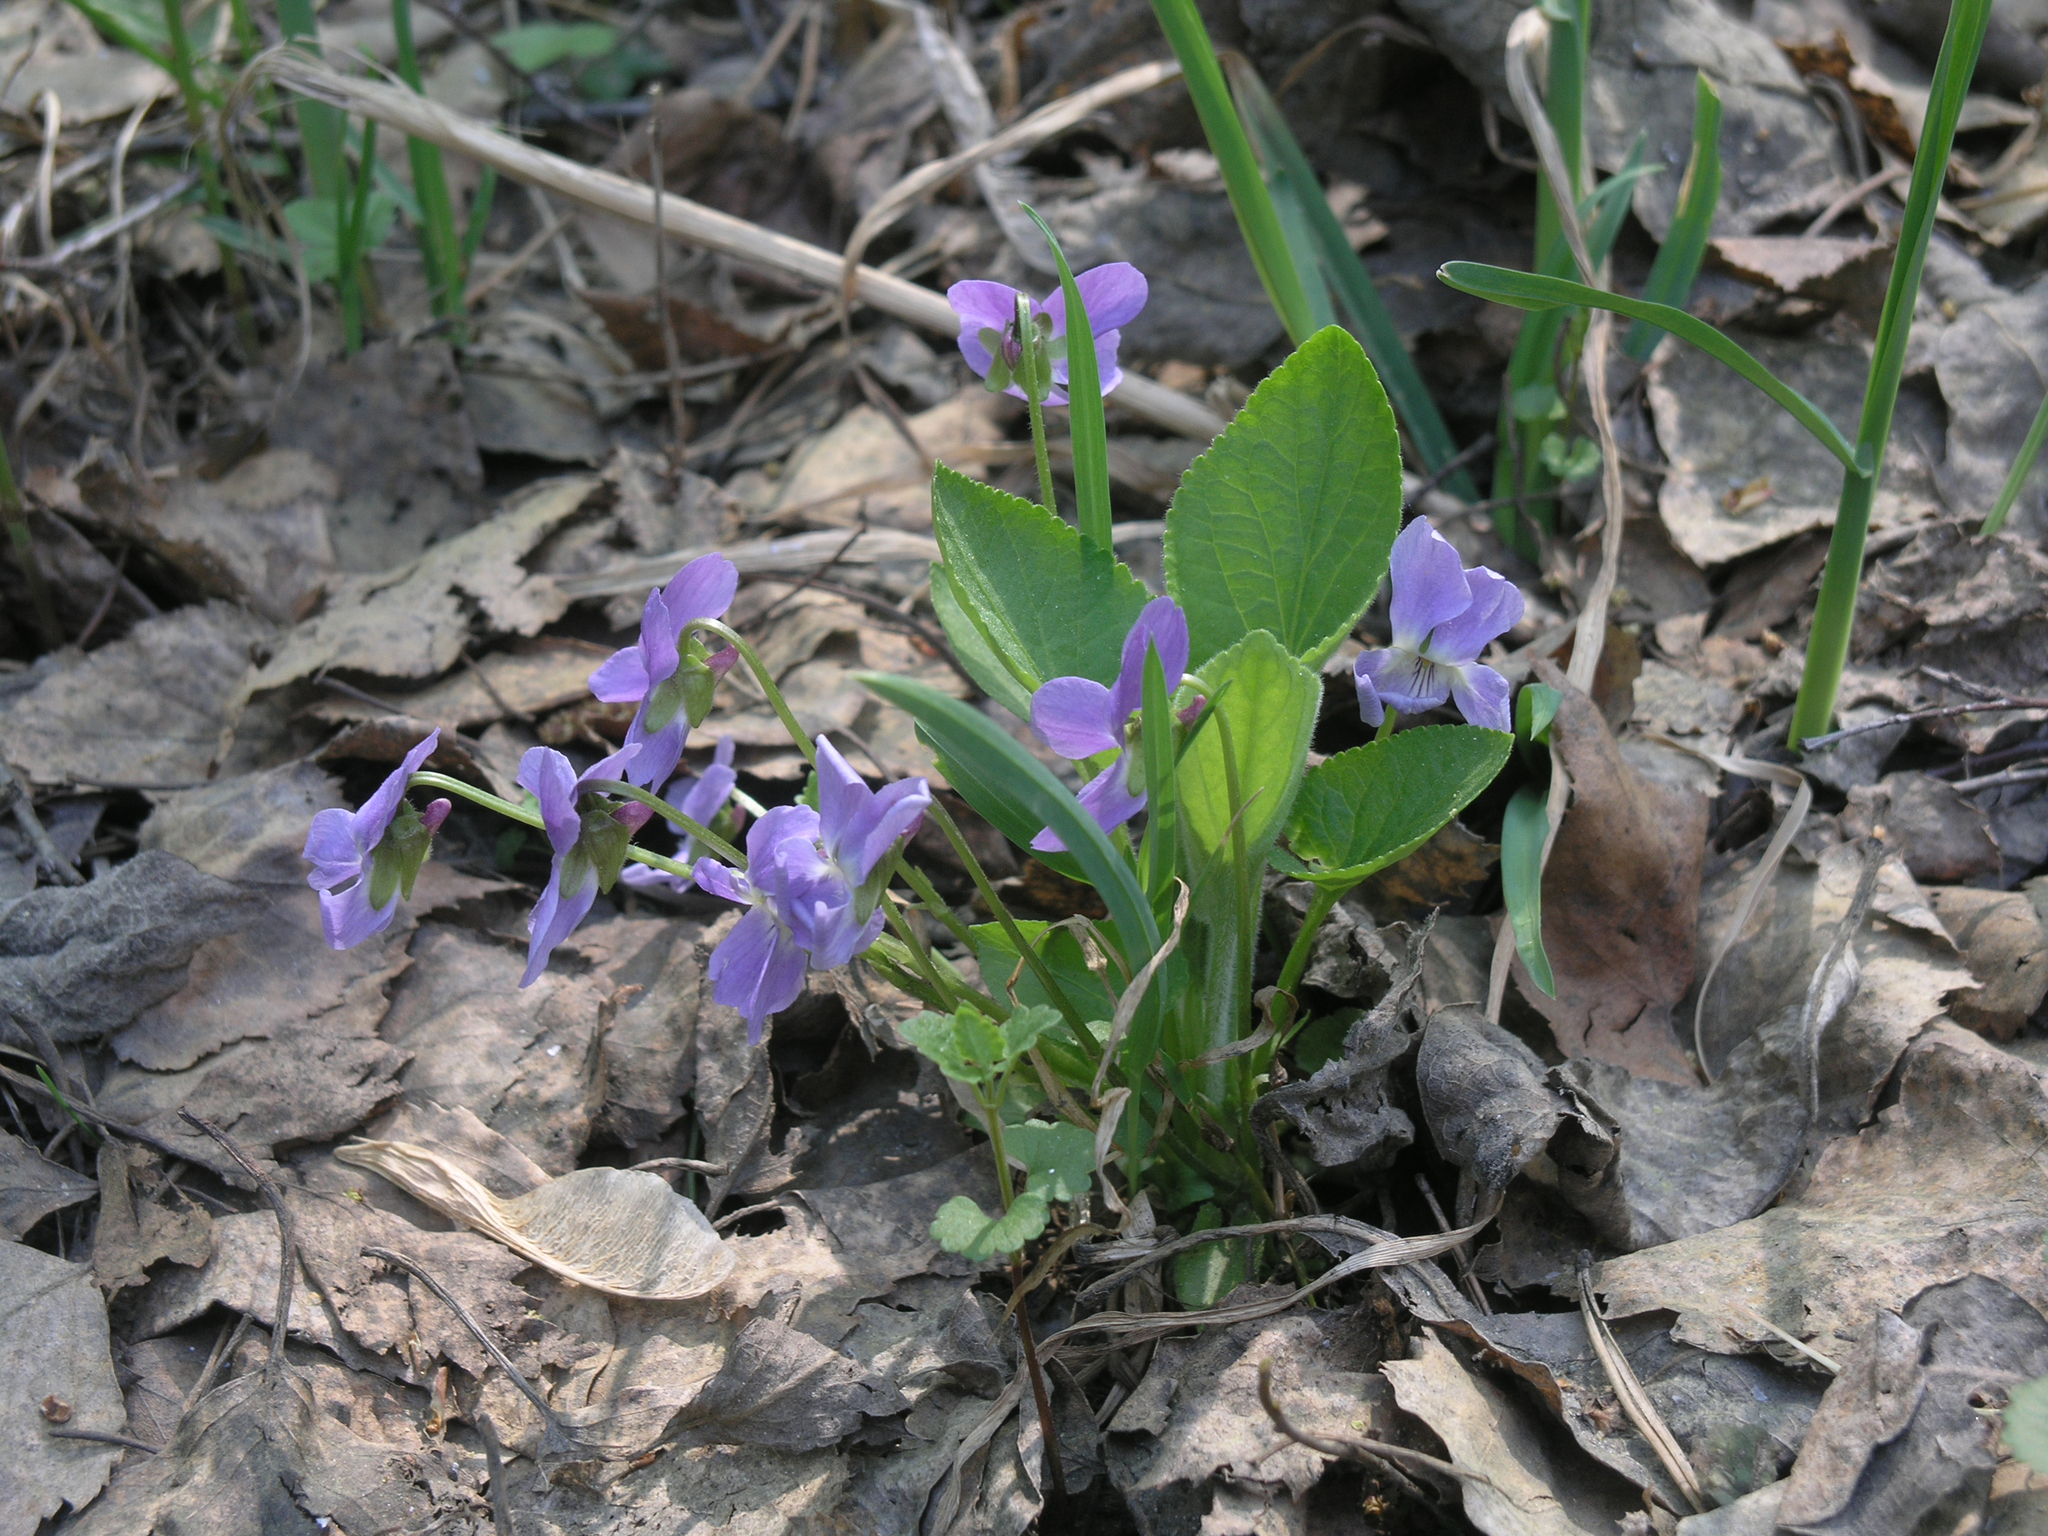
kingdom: Plantae
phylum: Tracheophyta
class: Magnoliopsida
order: Malpighiales
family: Violaceae
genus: Viola
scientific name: Viola hirta
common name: Hairy violet
